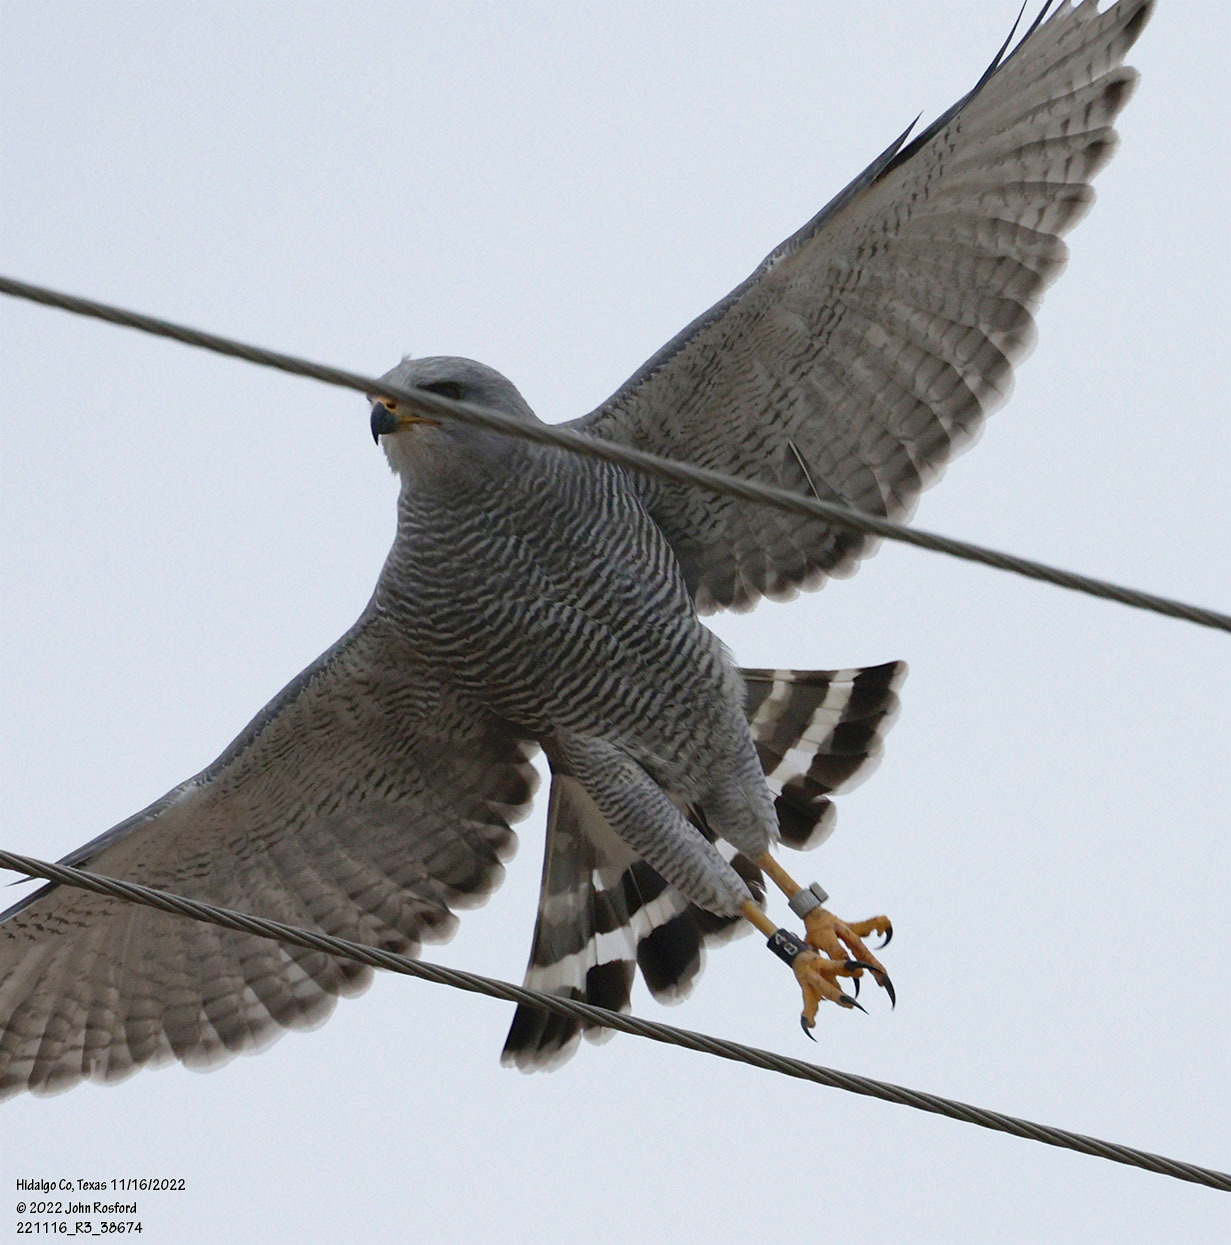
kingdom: Animalia
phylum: Chordata
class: Aves
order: Accipitriformes
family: Accipitridae
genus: Buteo
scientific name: Buteo nitidus
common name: Grey-lined hawk
